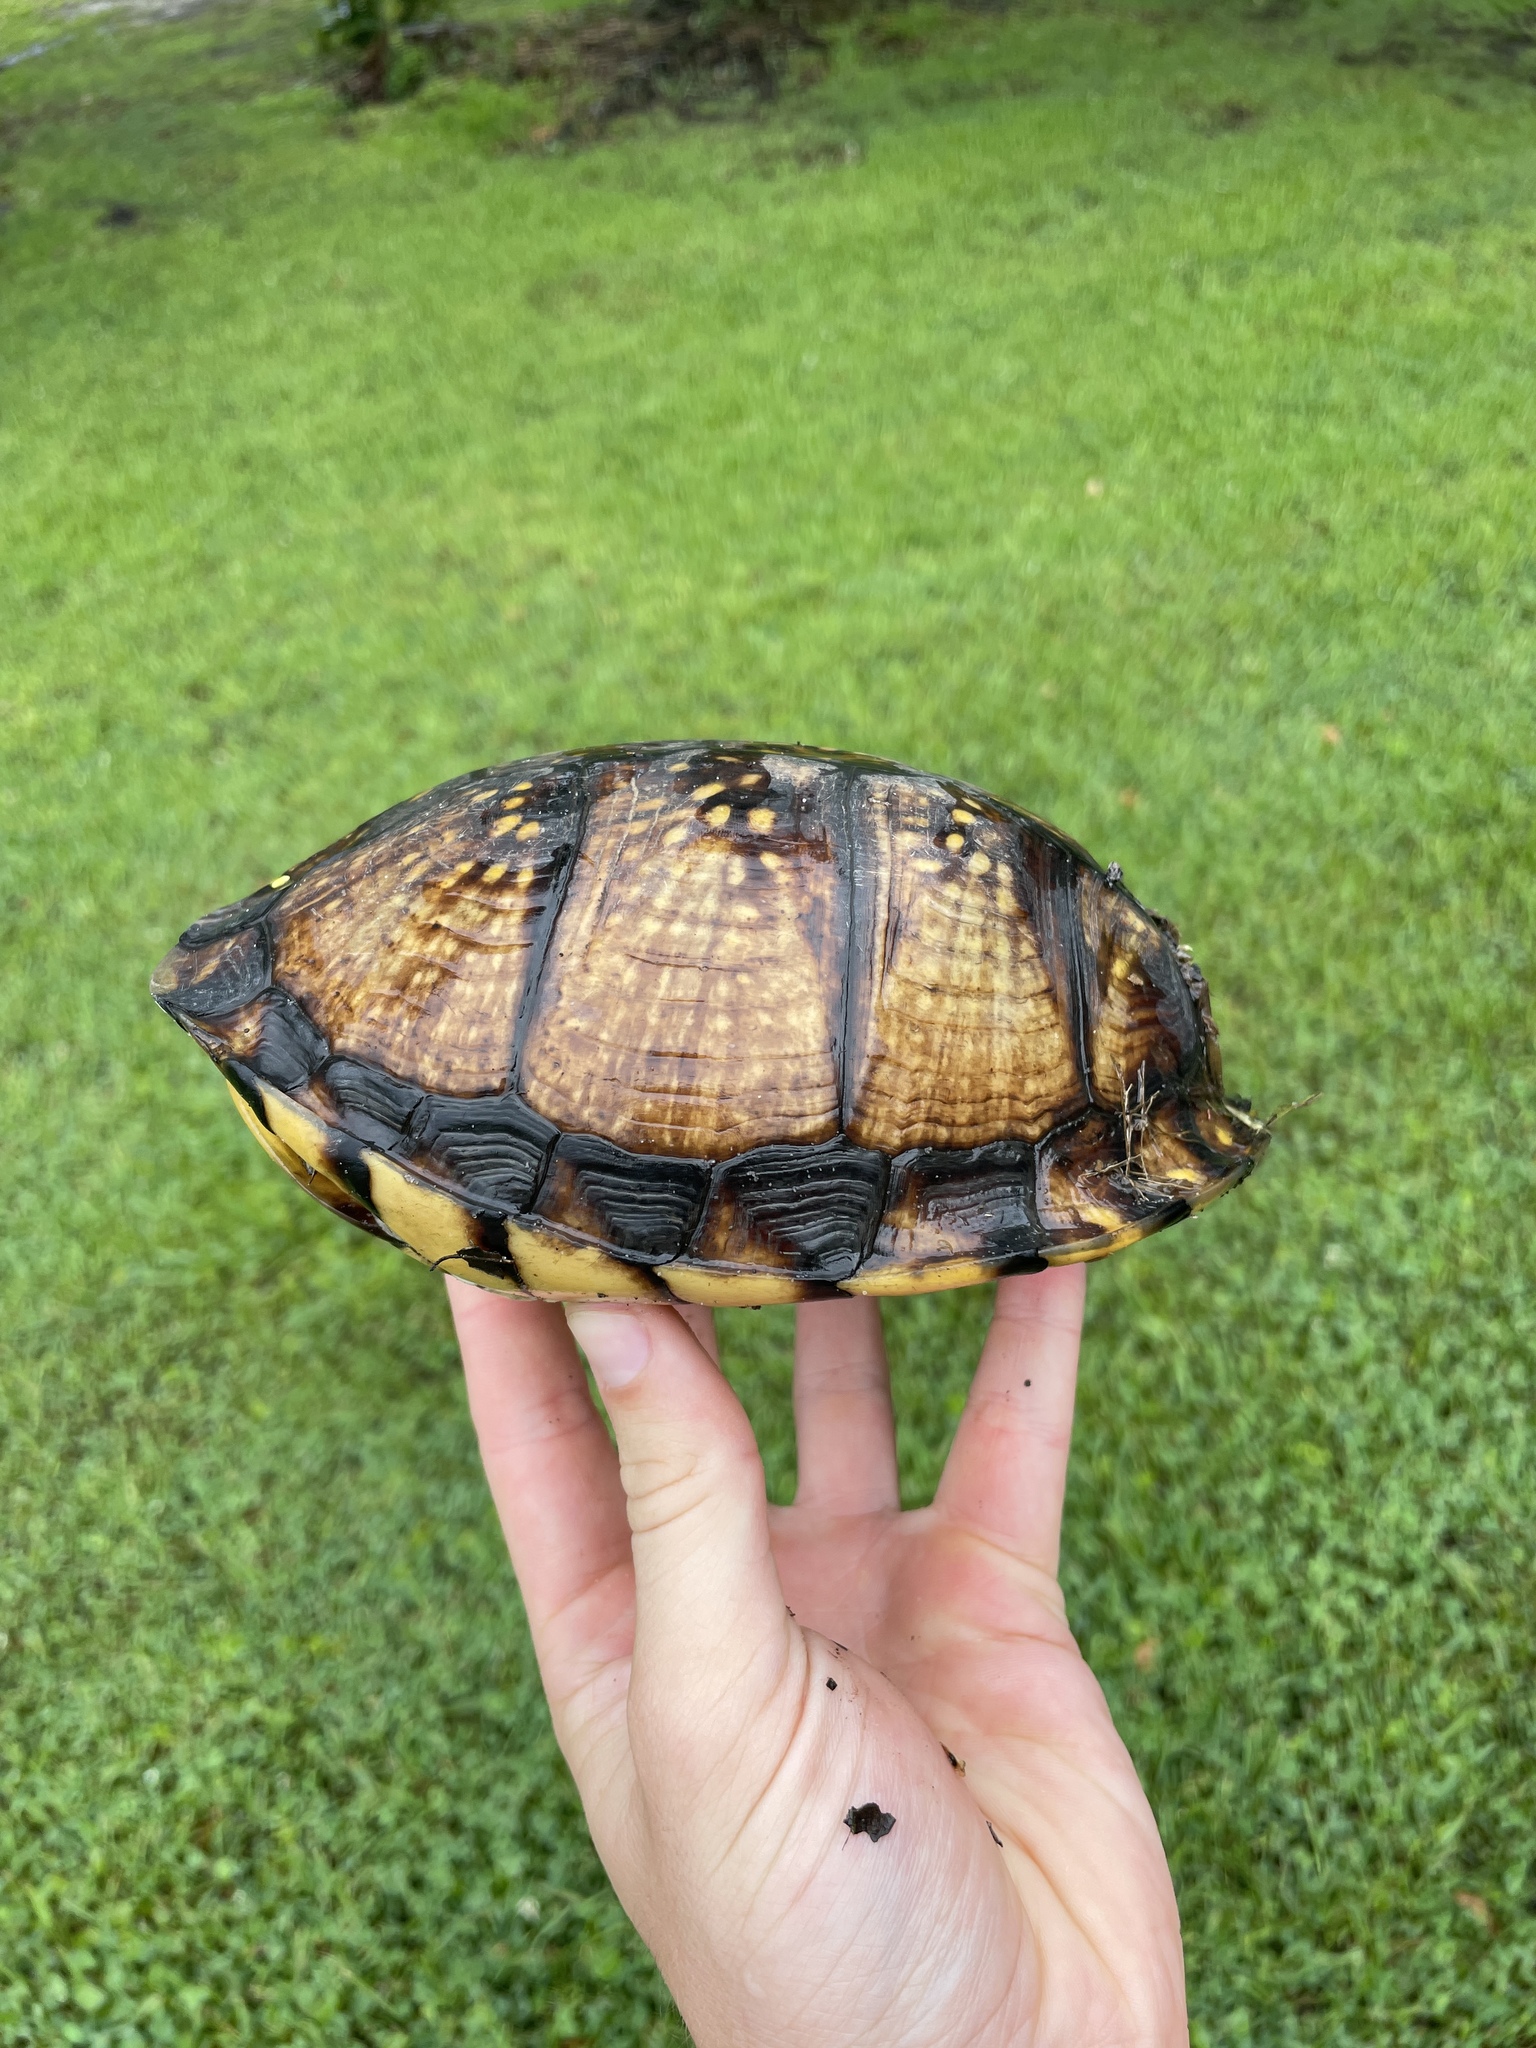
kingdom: Animalia
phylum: Chordata
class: Testudines
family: Emydidae
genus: Terrapene
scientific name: Terrapene carolina
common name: Common box turtle
